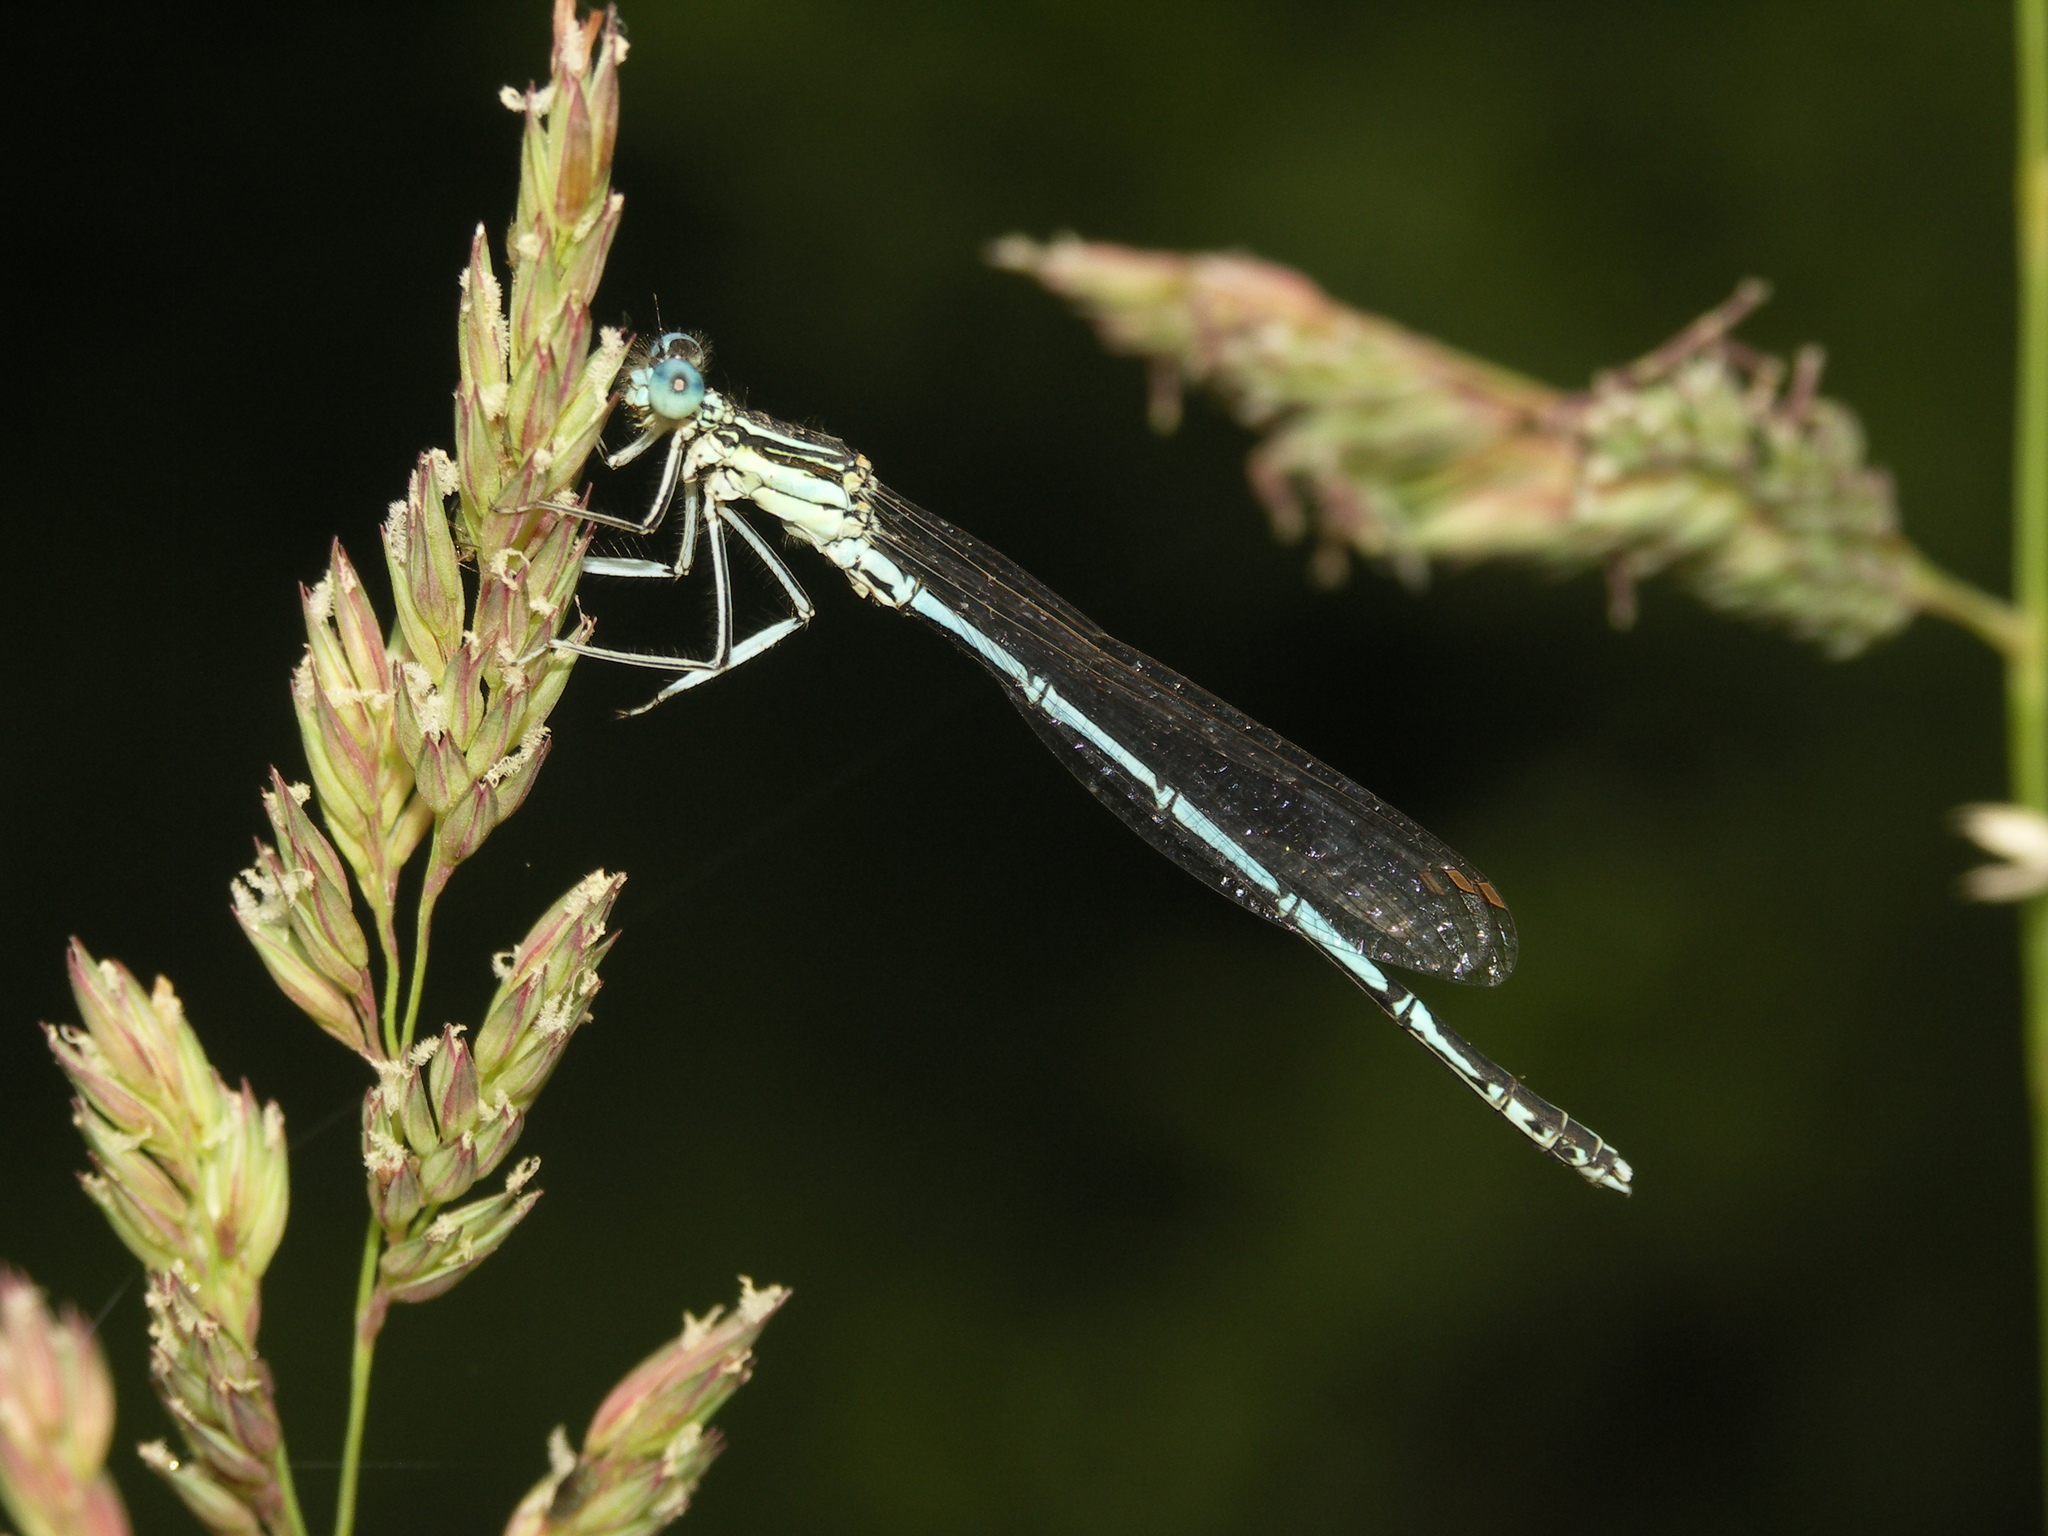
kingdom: Animalia
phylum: Arthropoda
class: Insecta
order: Odonata
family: Platycnemididae
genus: Platycnemis
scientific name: Platycnemis pennipes
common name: White-legged damselfly
